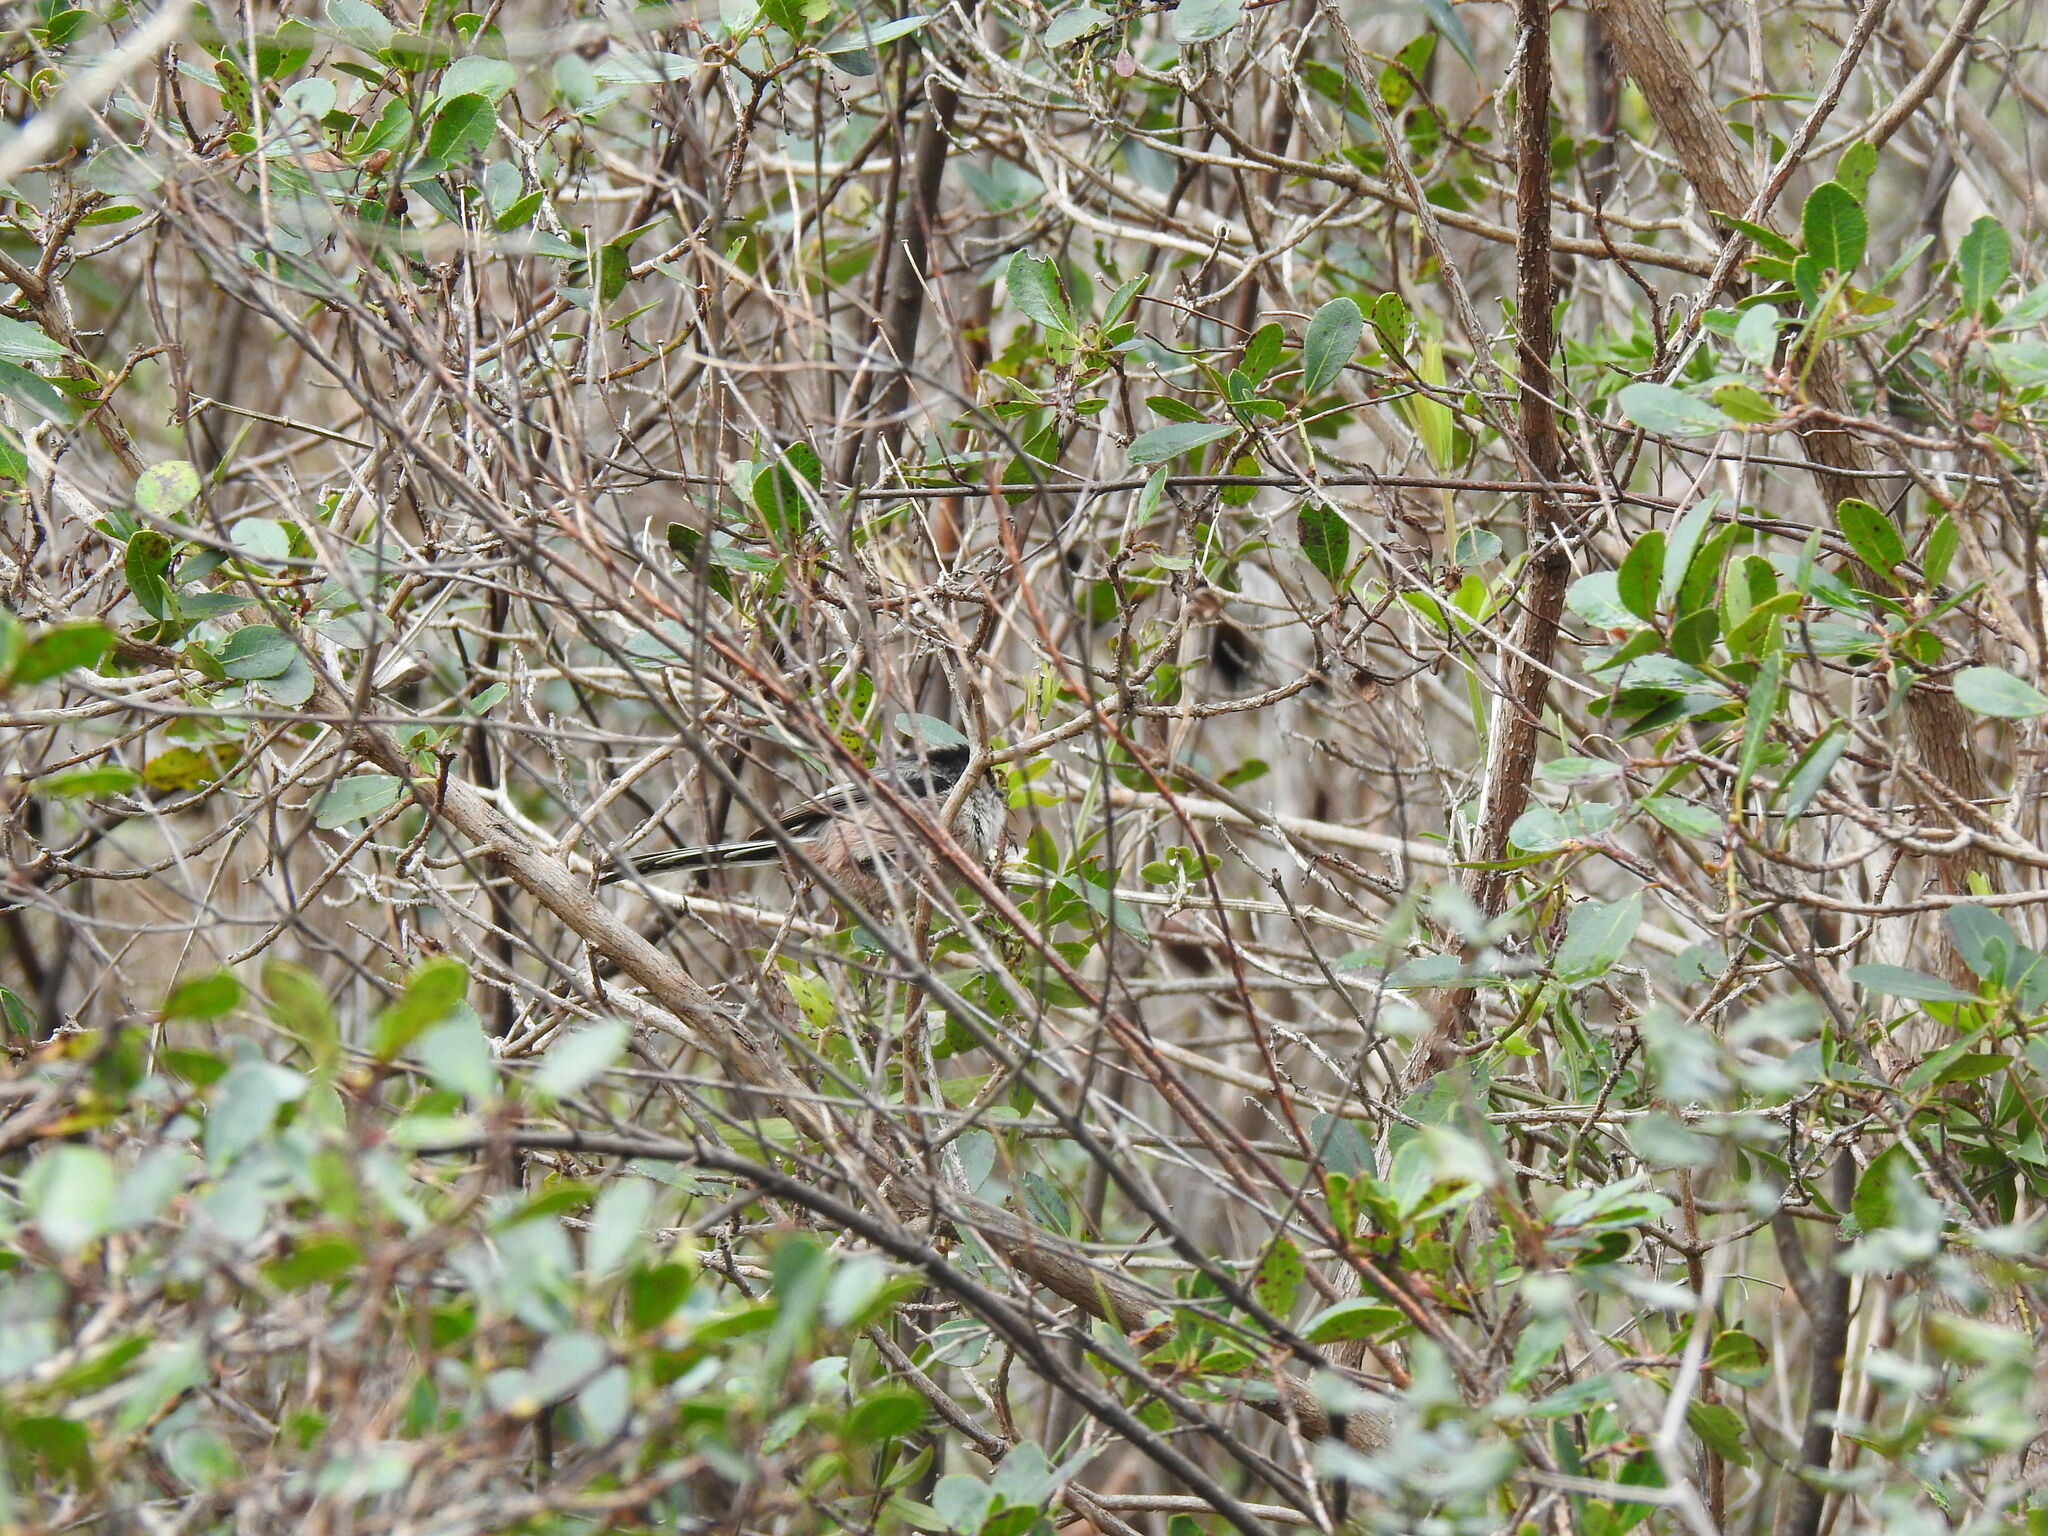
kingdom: Animalia
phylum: Chordata
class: Aves
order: Passeriformes
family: Aegithalidae
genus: Aegithalos
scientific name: Aegithalos caudatus
